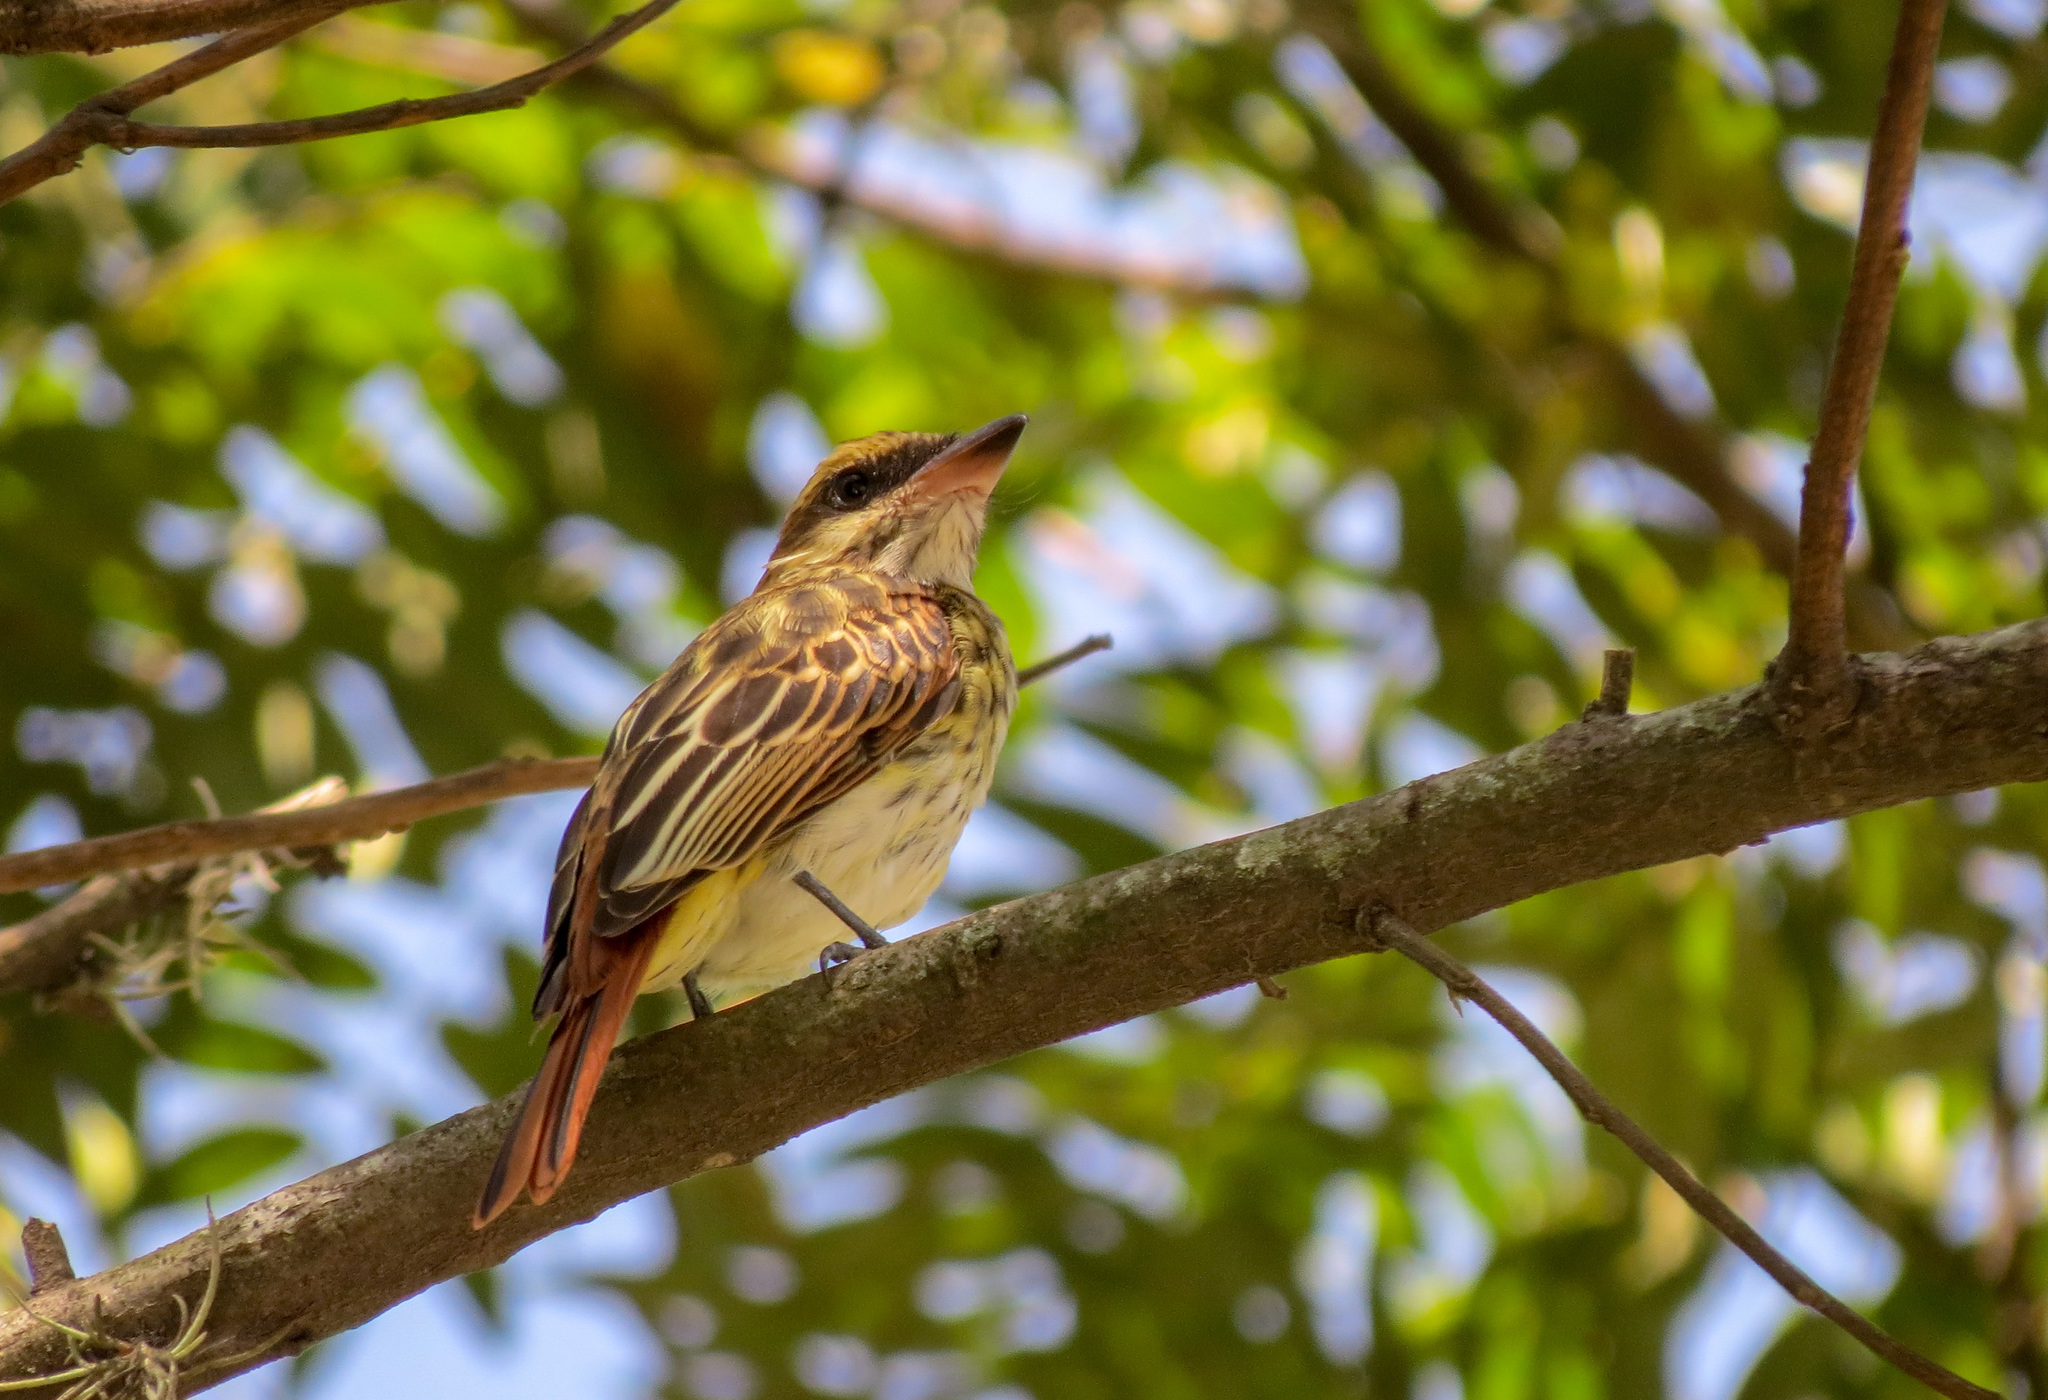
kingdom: Animalia
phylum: Chordata
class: Aves
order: Passeriformes
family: Tyrannidae
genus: Myiodynastes
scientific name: Myiodynastes maculatus
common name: Streaked flycatcher
